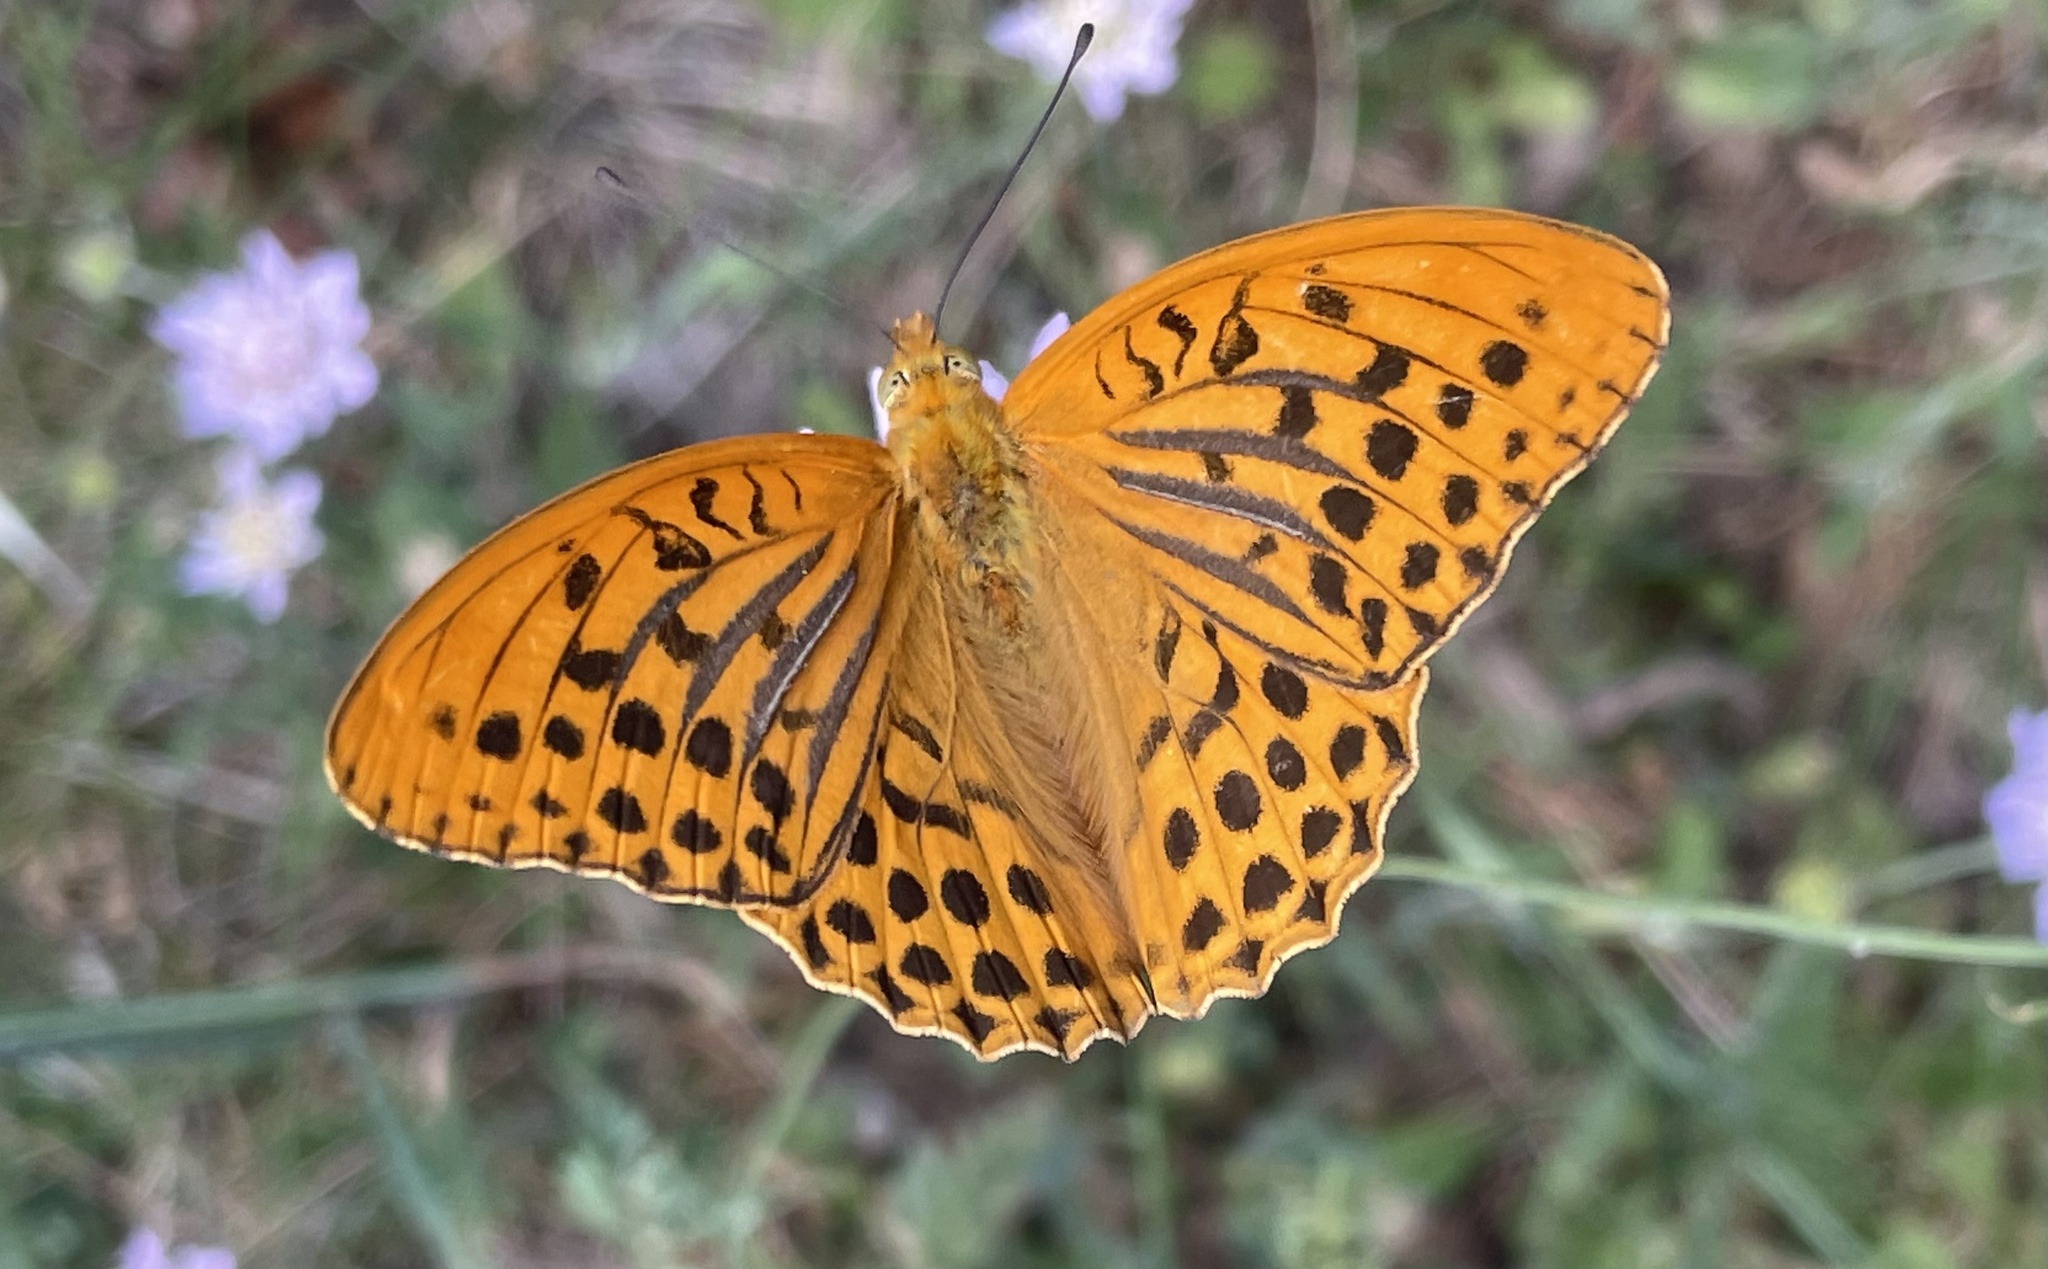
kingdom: Animalia
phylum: Arthropoda
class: Insecta
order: Lepidoptera
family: Nymphalidae
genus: Argynnis
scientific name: Argynnis paphia
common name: Silver-washed fritillary
